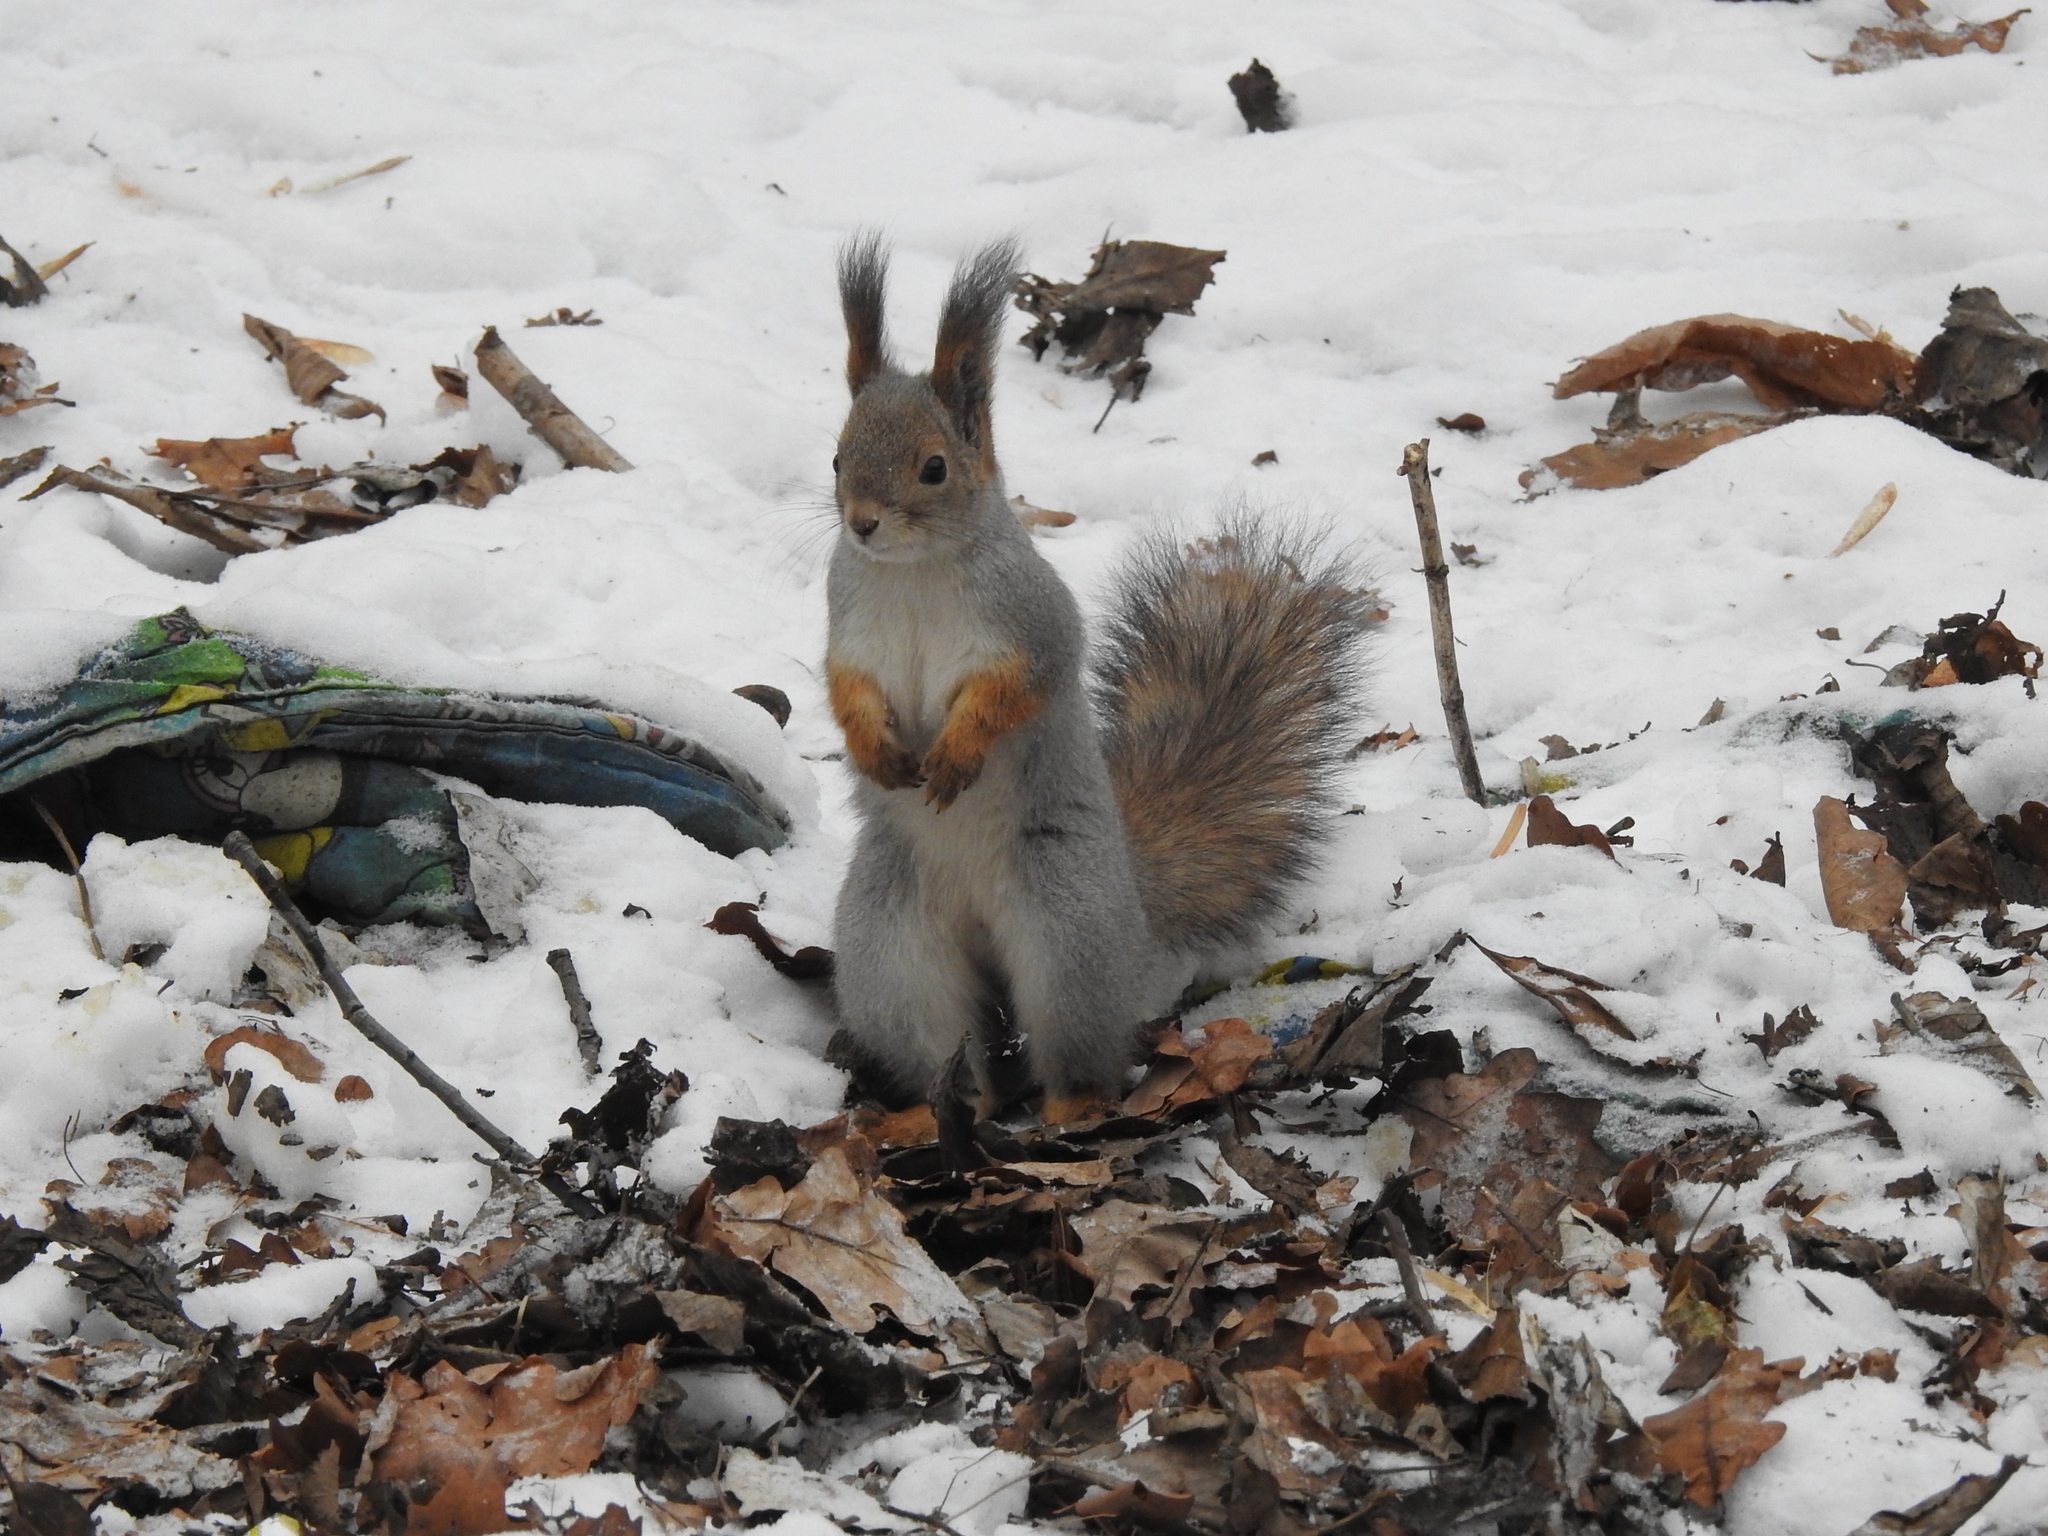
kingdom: Animalia
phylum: Chordata
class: Mammalia
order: Rodentia
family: Sciuridae
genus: Sciurus
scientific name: Sciurus vulgaris
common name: Eurasian red squirrel
